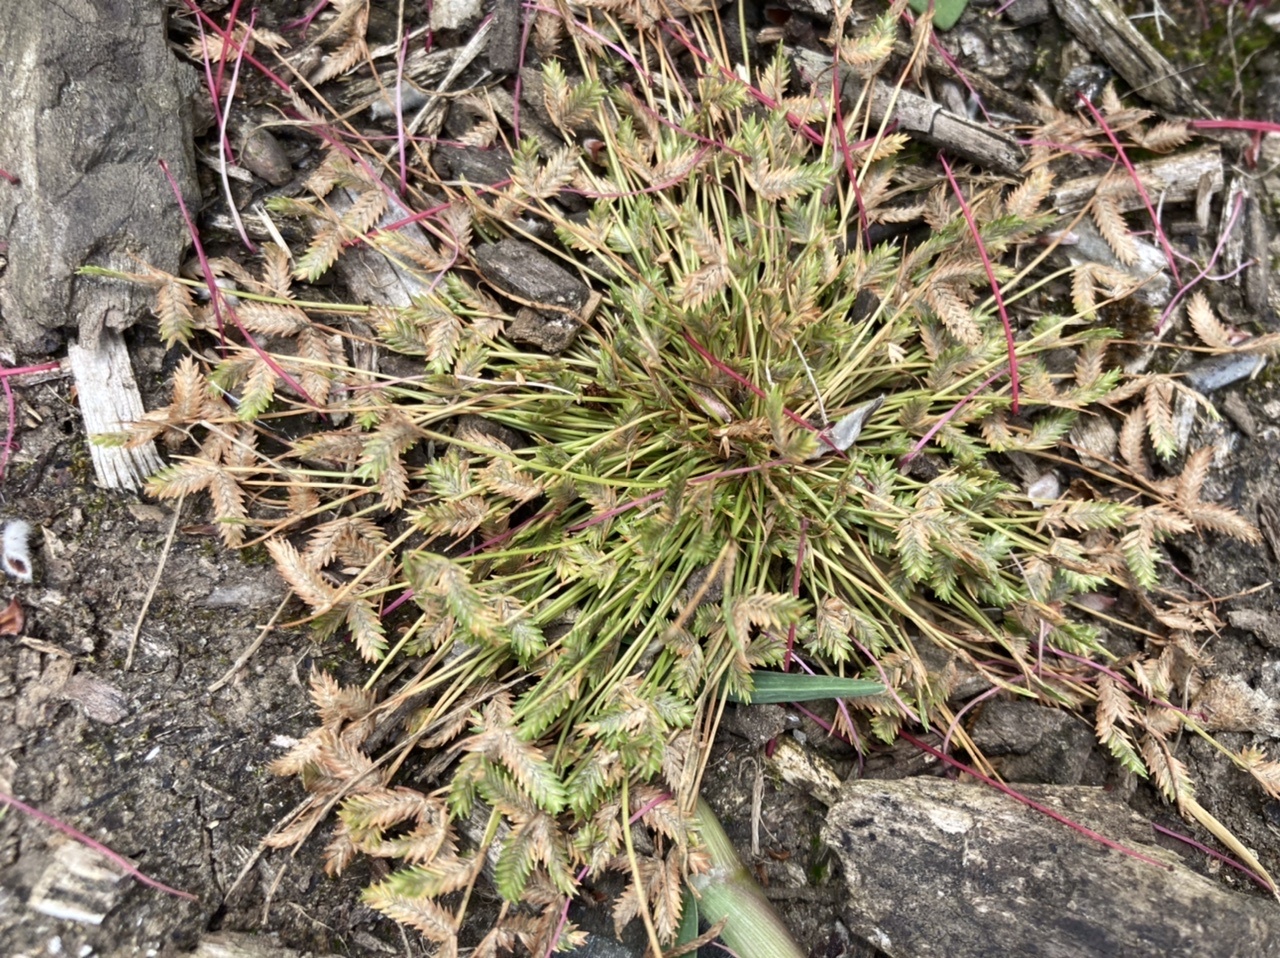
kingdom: Plantae
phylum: Tracheophyta
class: Liliopsida
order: Poales
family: Cyperaceae
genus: Isolepis
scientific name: Isolepis levynsiana
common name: Sedge
